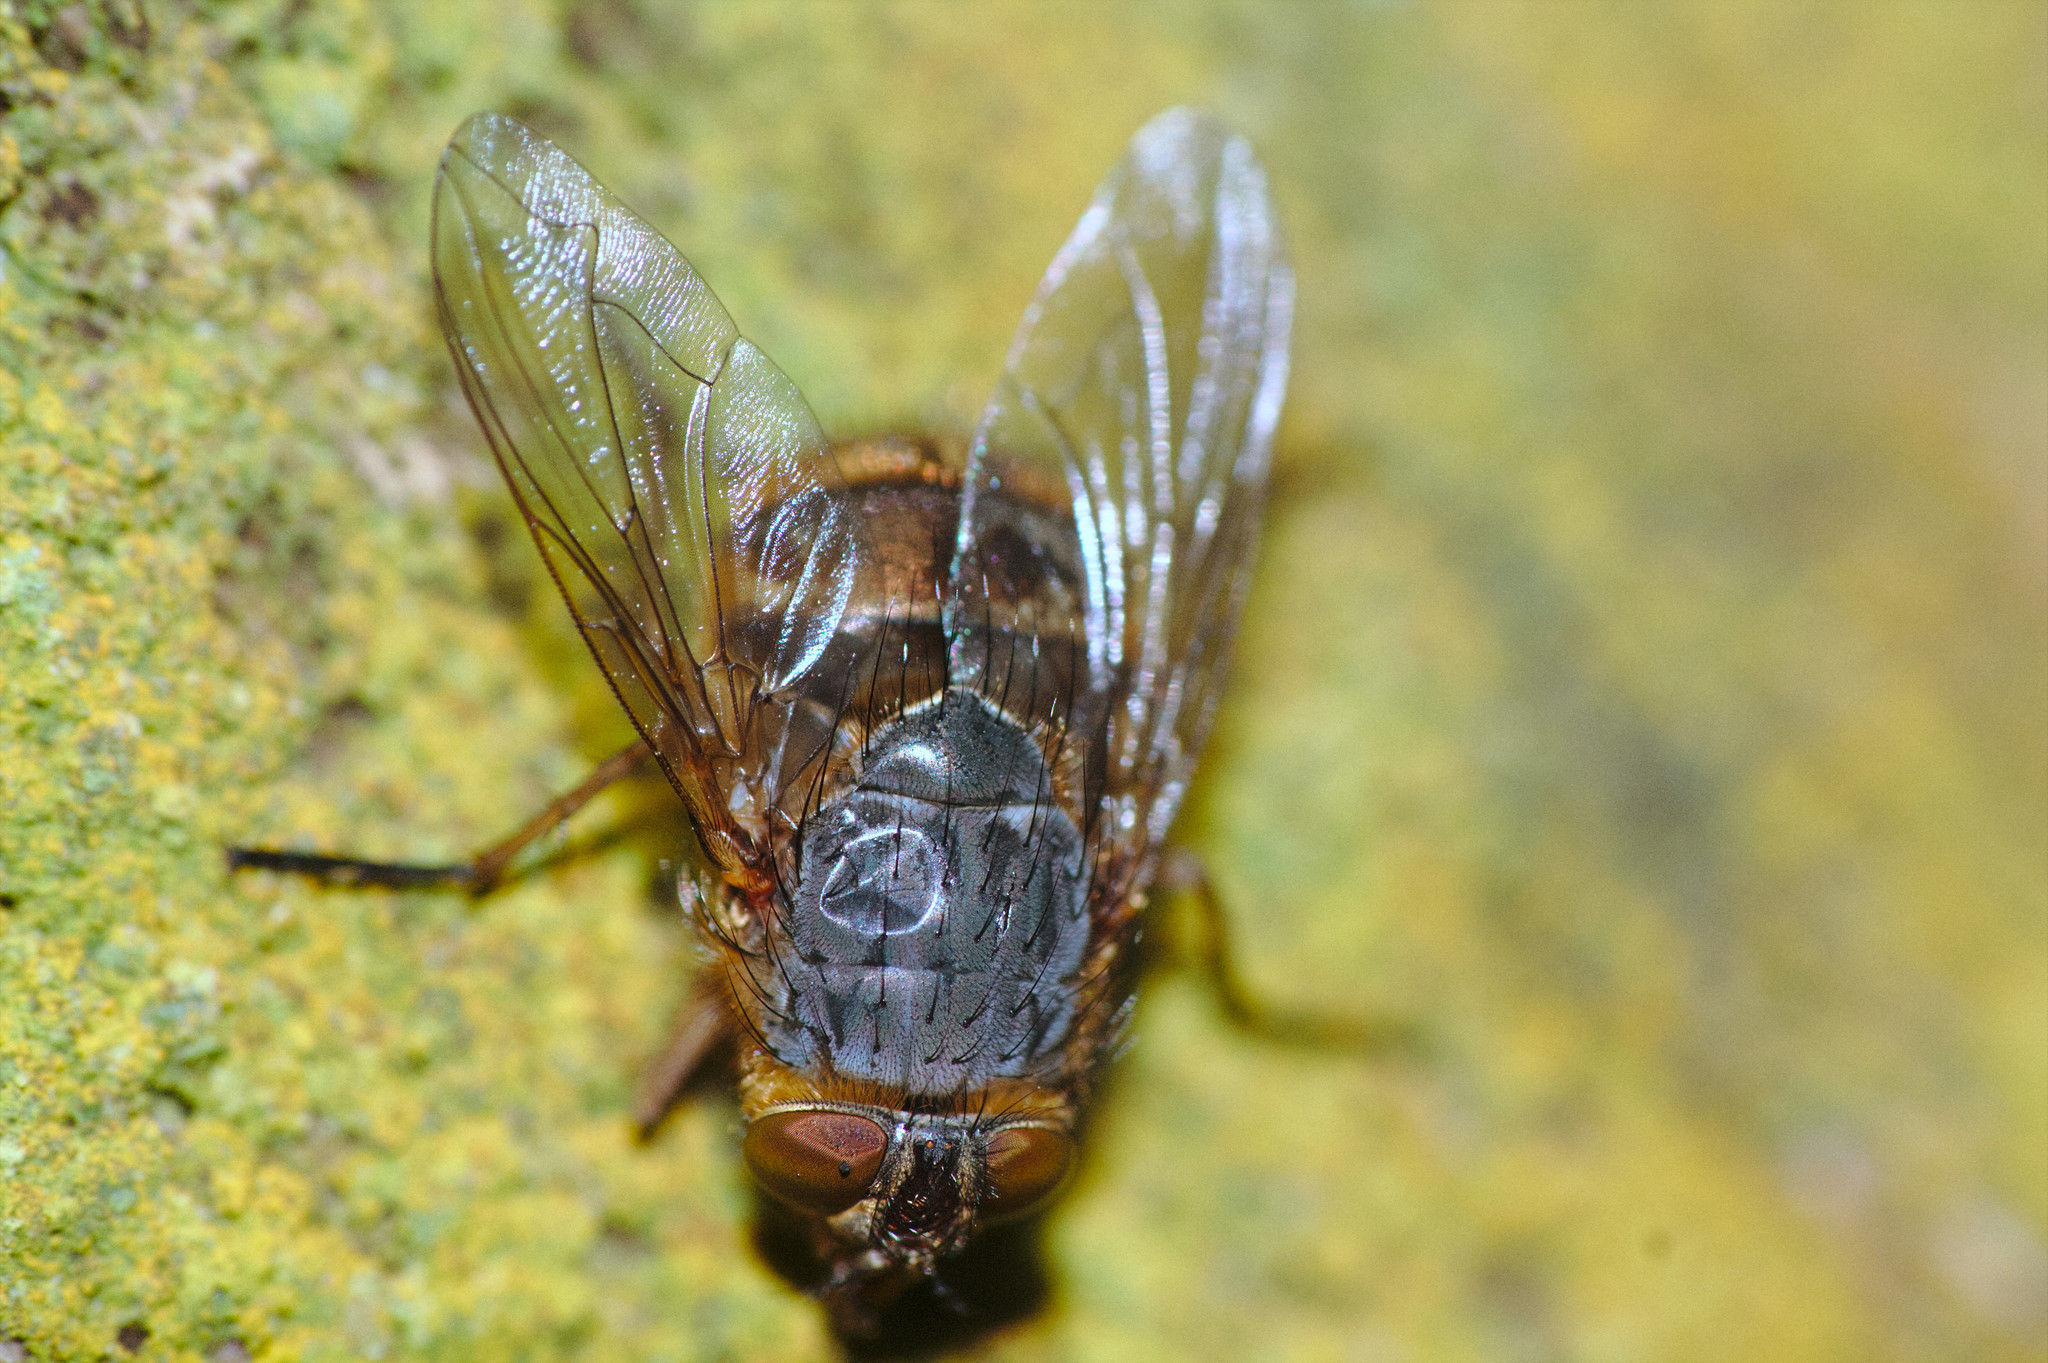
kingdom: Animalia
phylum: Arthropoda
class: Insecta
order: Diptera
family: Calliphoridae
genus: Calliphora
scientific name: Calliphora hilli
